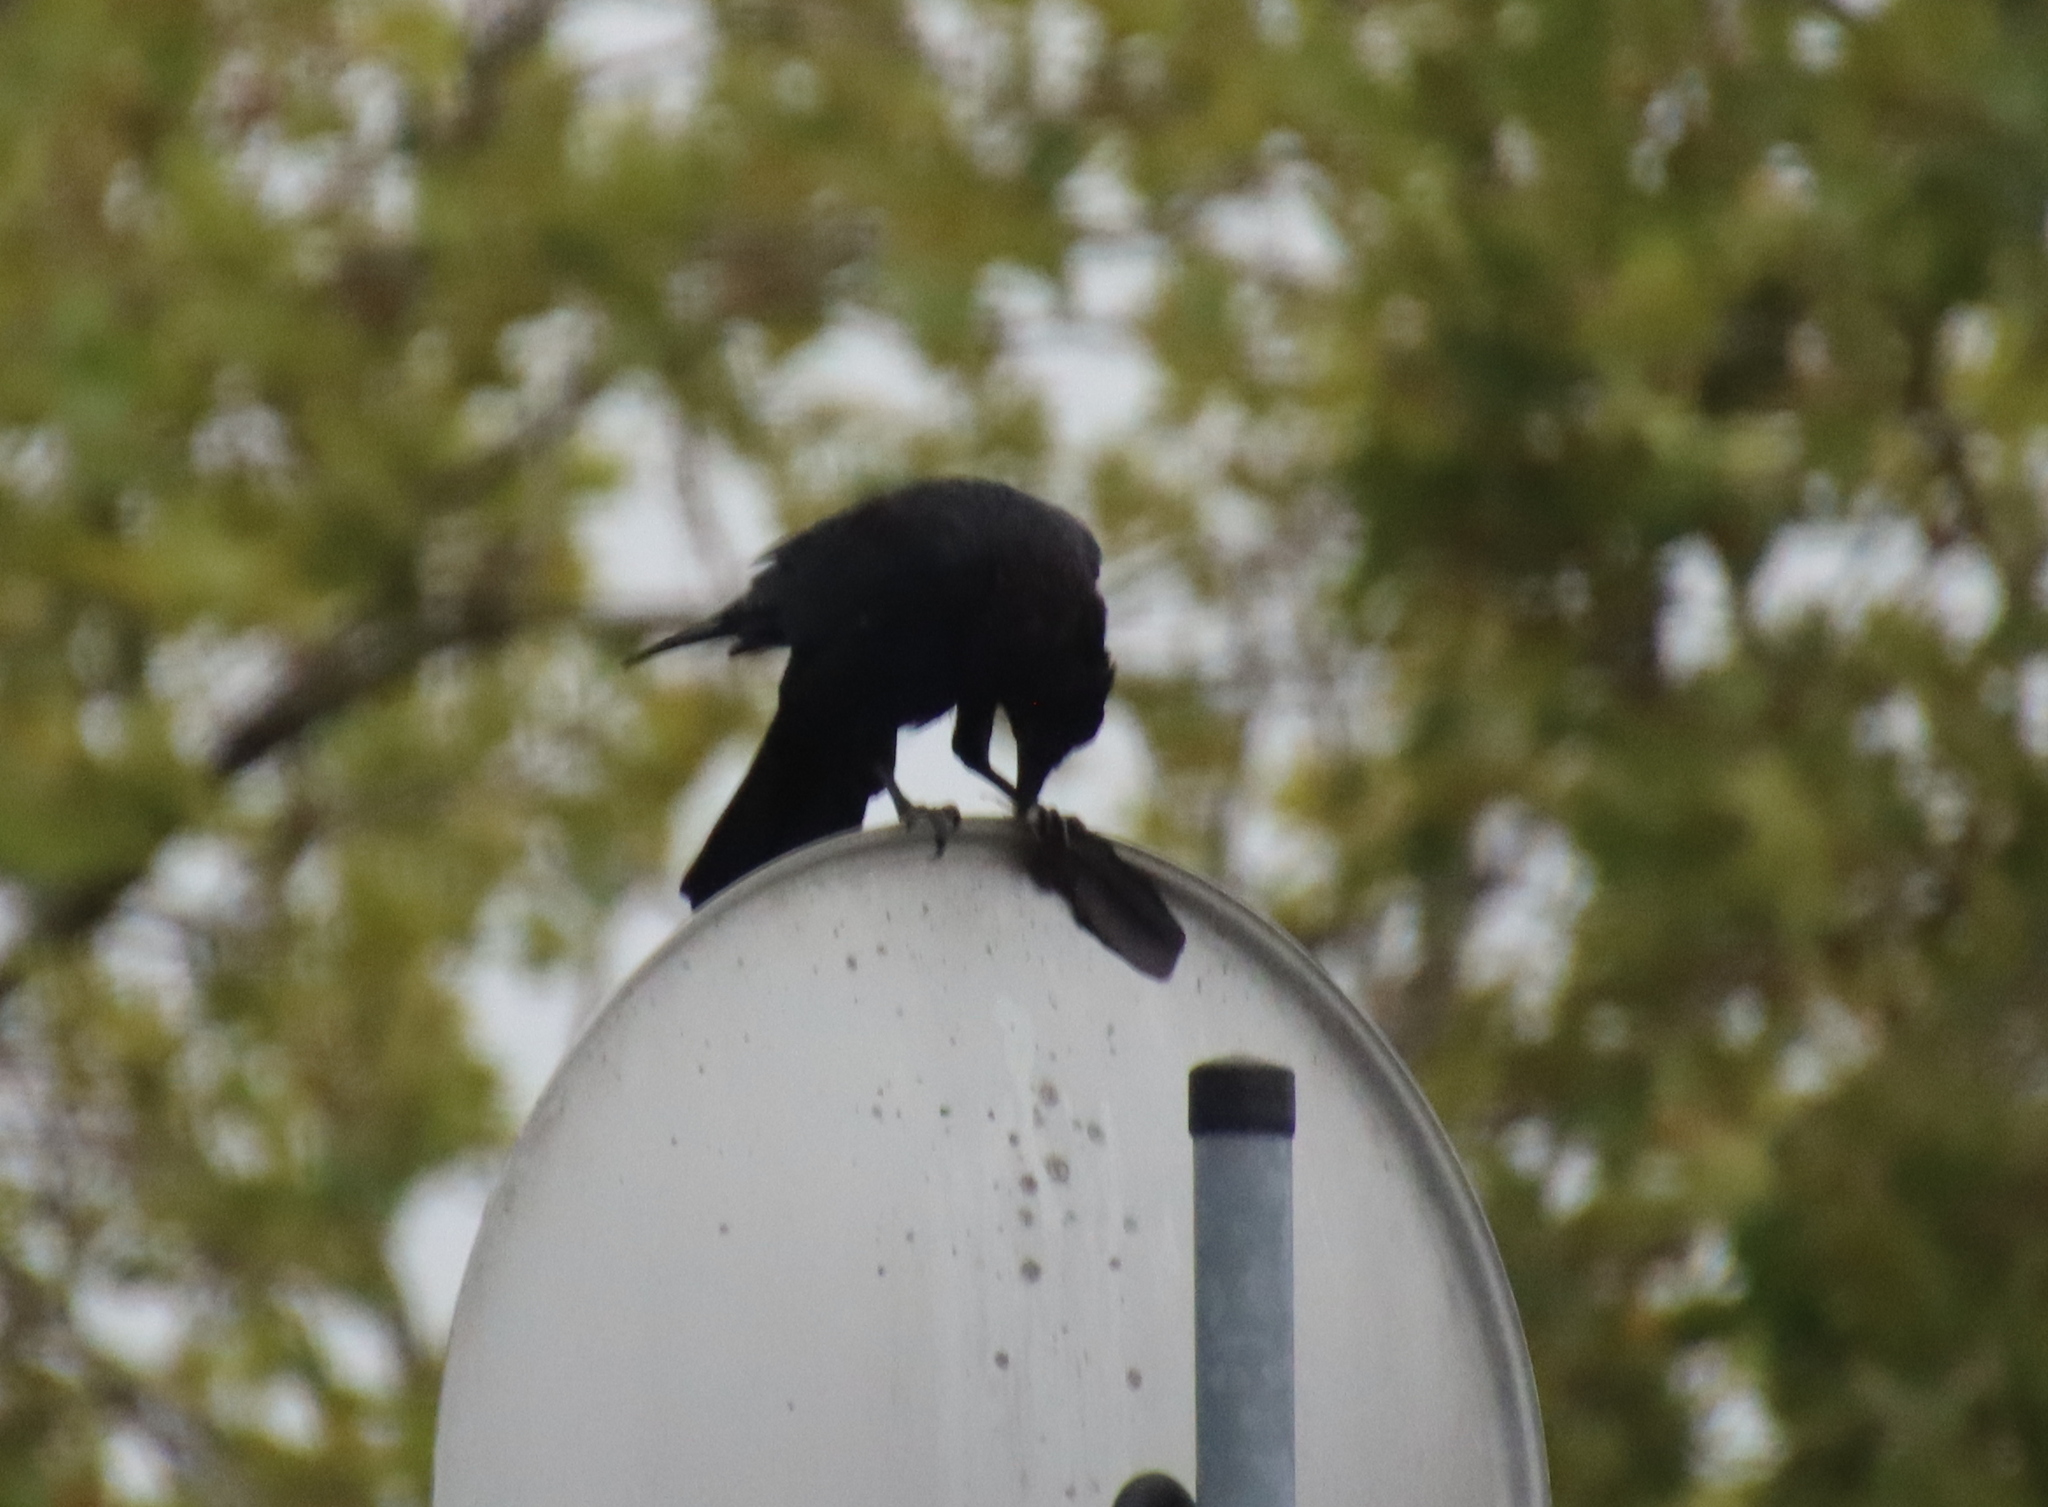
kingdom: Animalia
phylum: Chordata
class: Aves
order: Passeriformes
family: Corvidae
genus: Corvus
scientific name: Corvus corone
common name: Carrion crow
